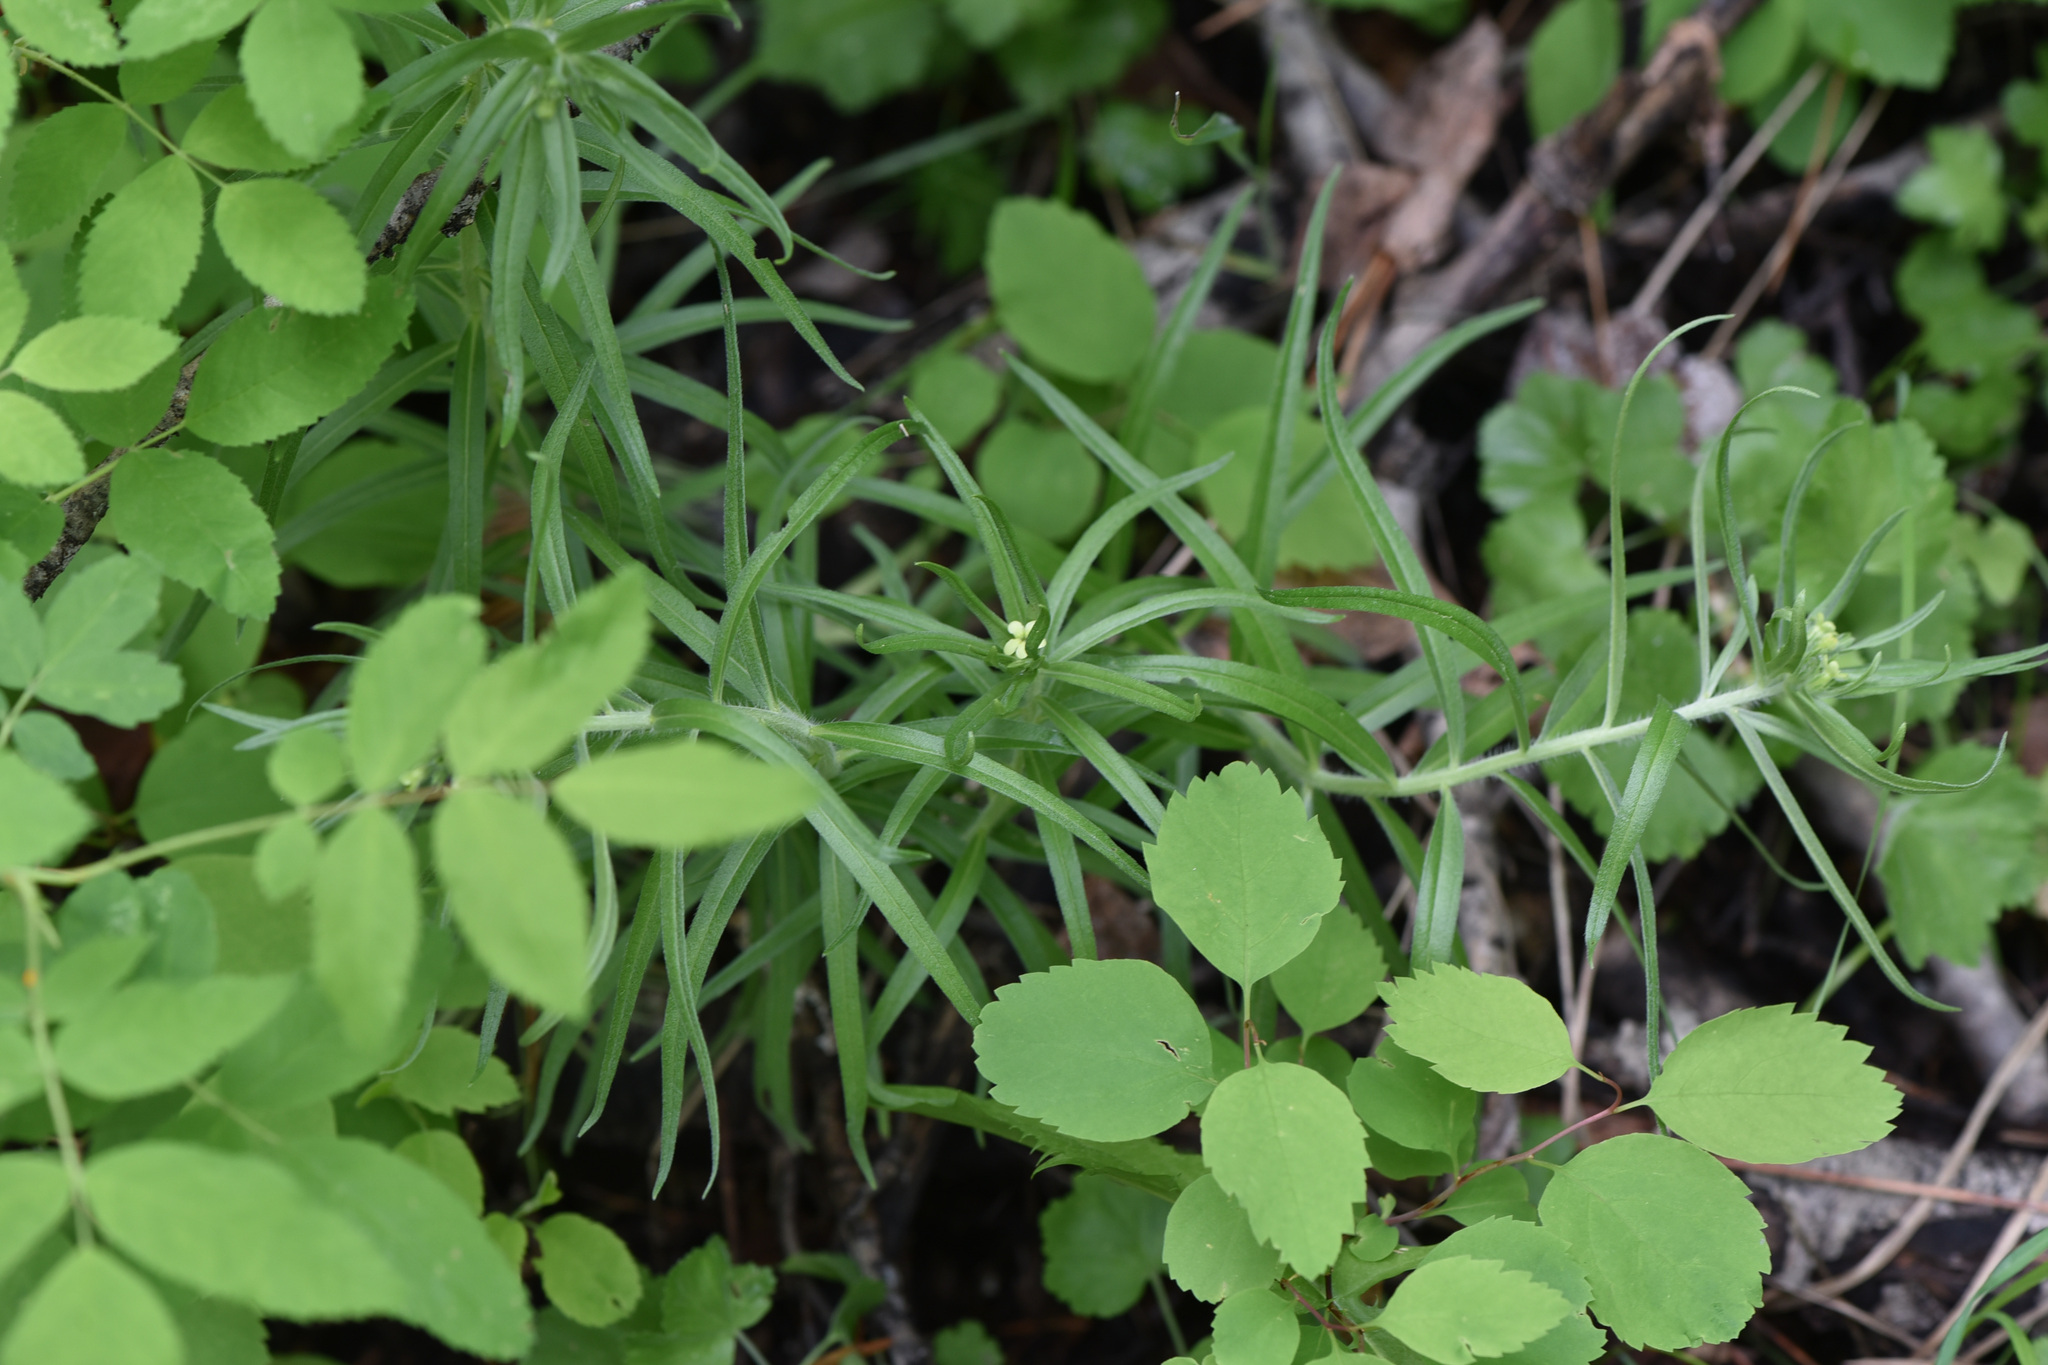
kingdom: Plantae
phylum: Tracheophyta
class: Magnoliopsida
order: Boraginales
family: Boraginaceae
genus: Lithospermum
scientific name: Lithospermum ruderale
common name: Western gromwell
